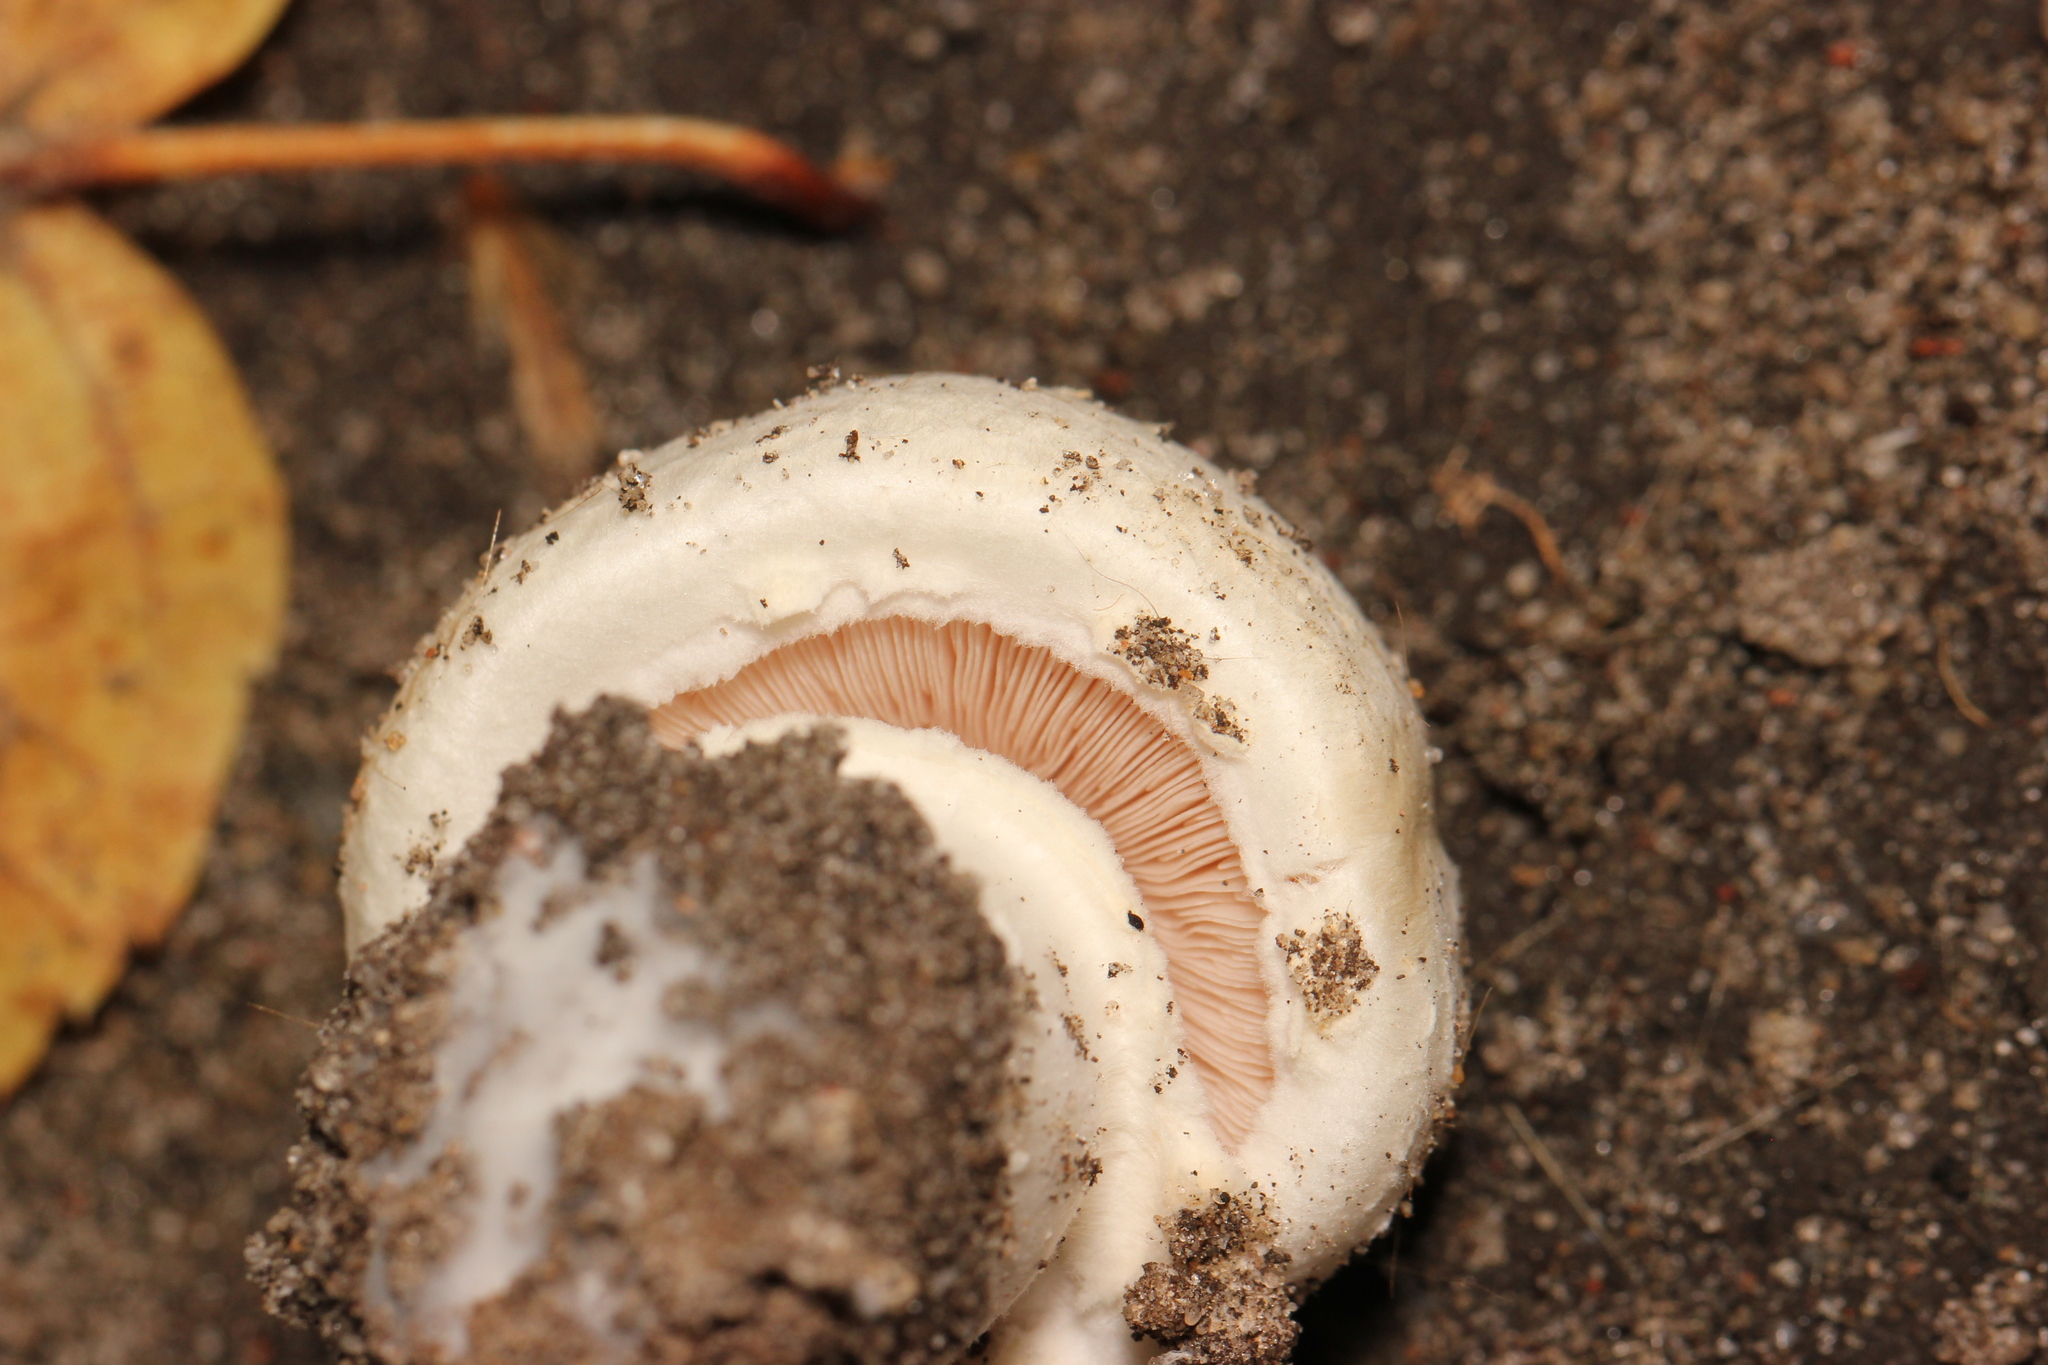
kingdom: Fungi
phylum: Basidiomycota
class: Agaricomycetes
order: Agaricales
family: Agaricaceae
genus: Agaricus
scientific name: Agaricus campestris
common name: Field mushroom
